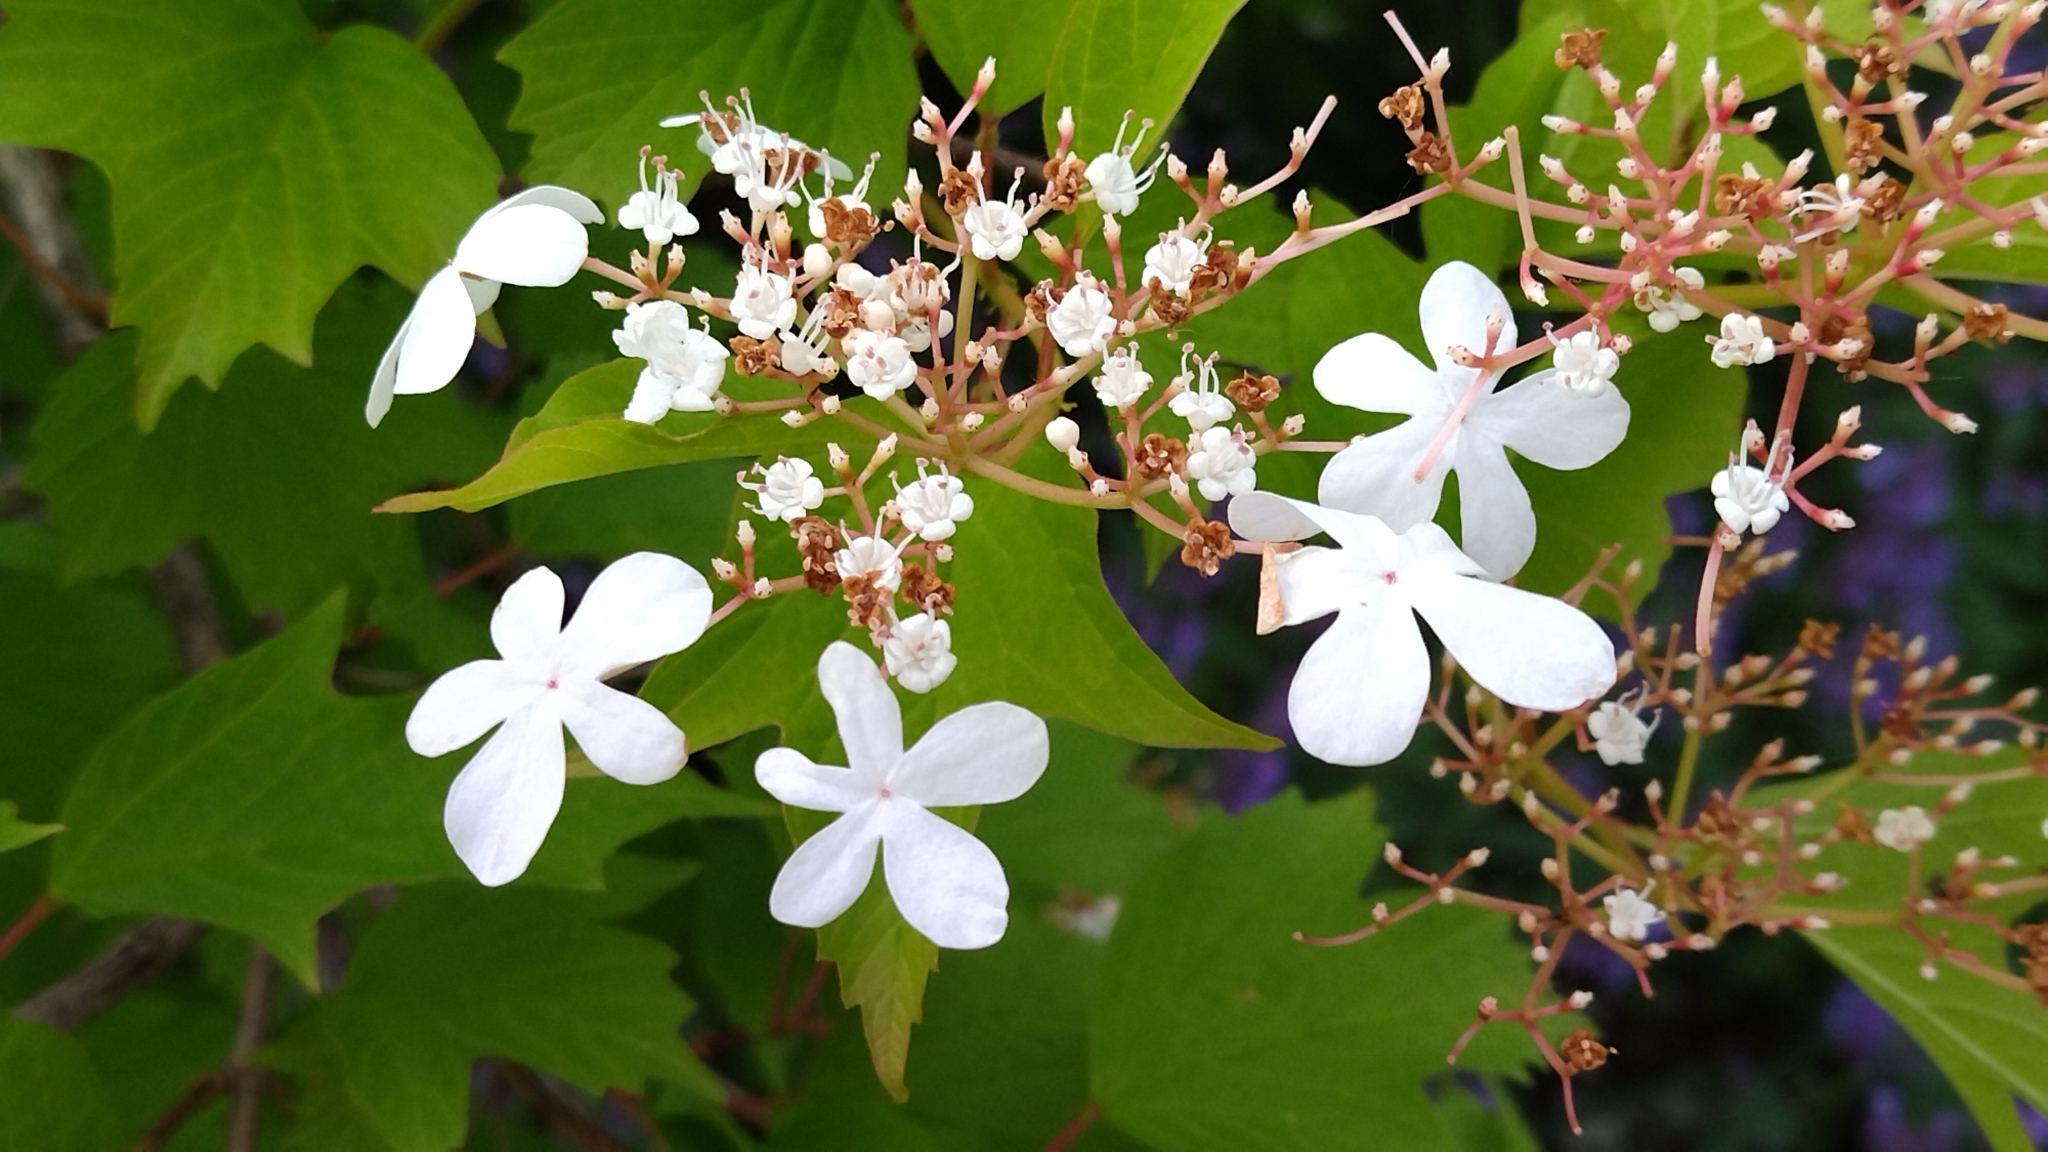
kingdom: Plantae
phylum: Tracheophyta
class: Magnoliopsida
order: Dipsacales
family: Viburnaceae
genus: Viburnum
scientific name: Viburnum opulus
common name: Guelder-rose
